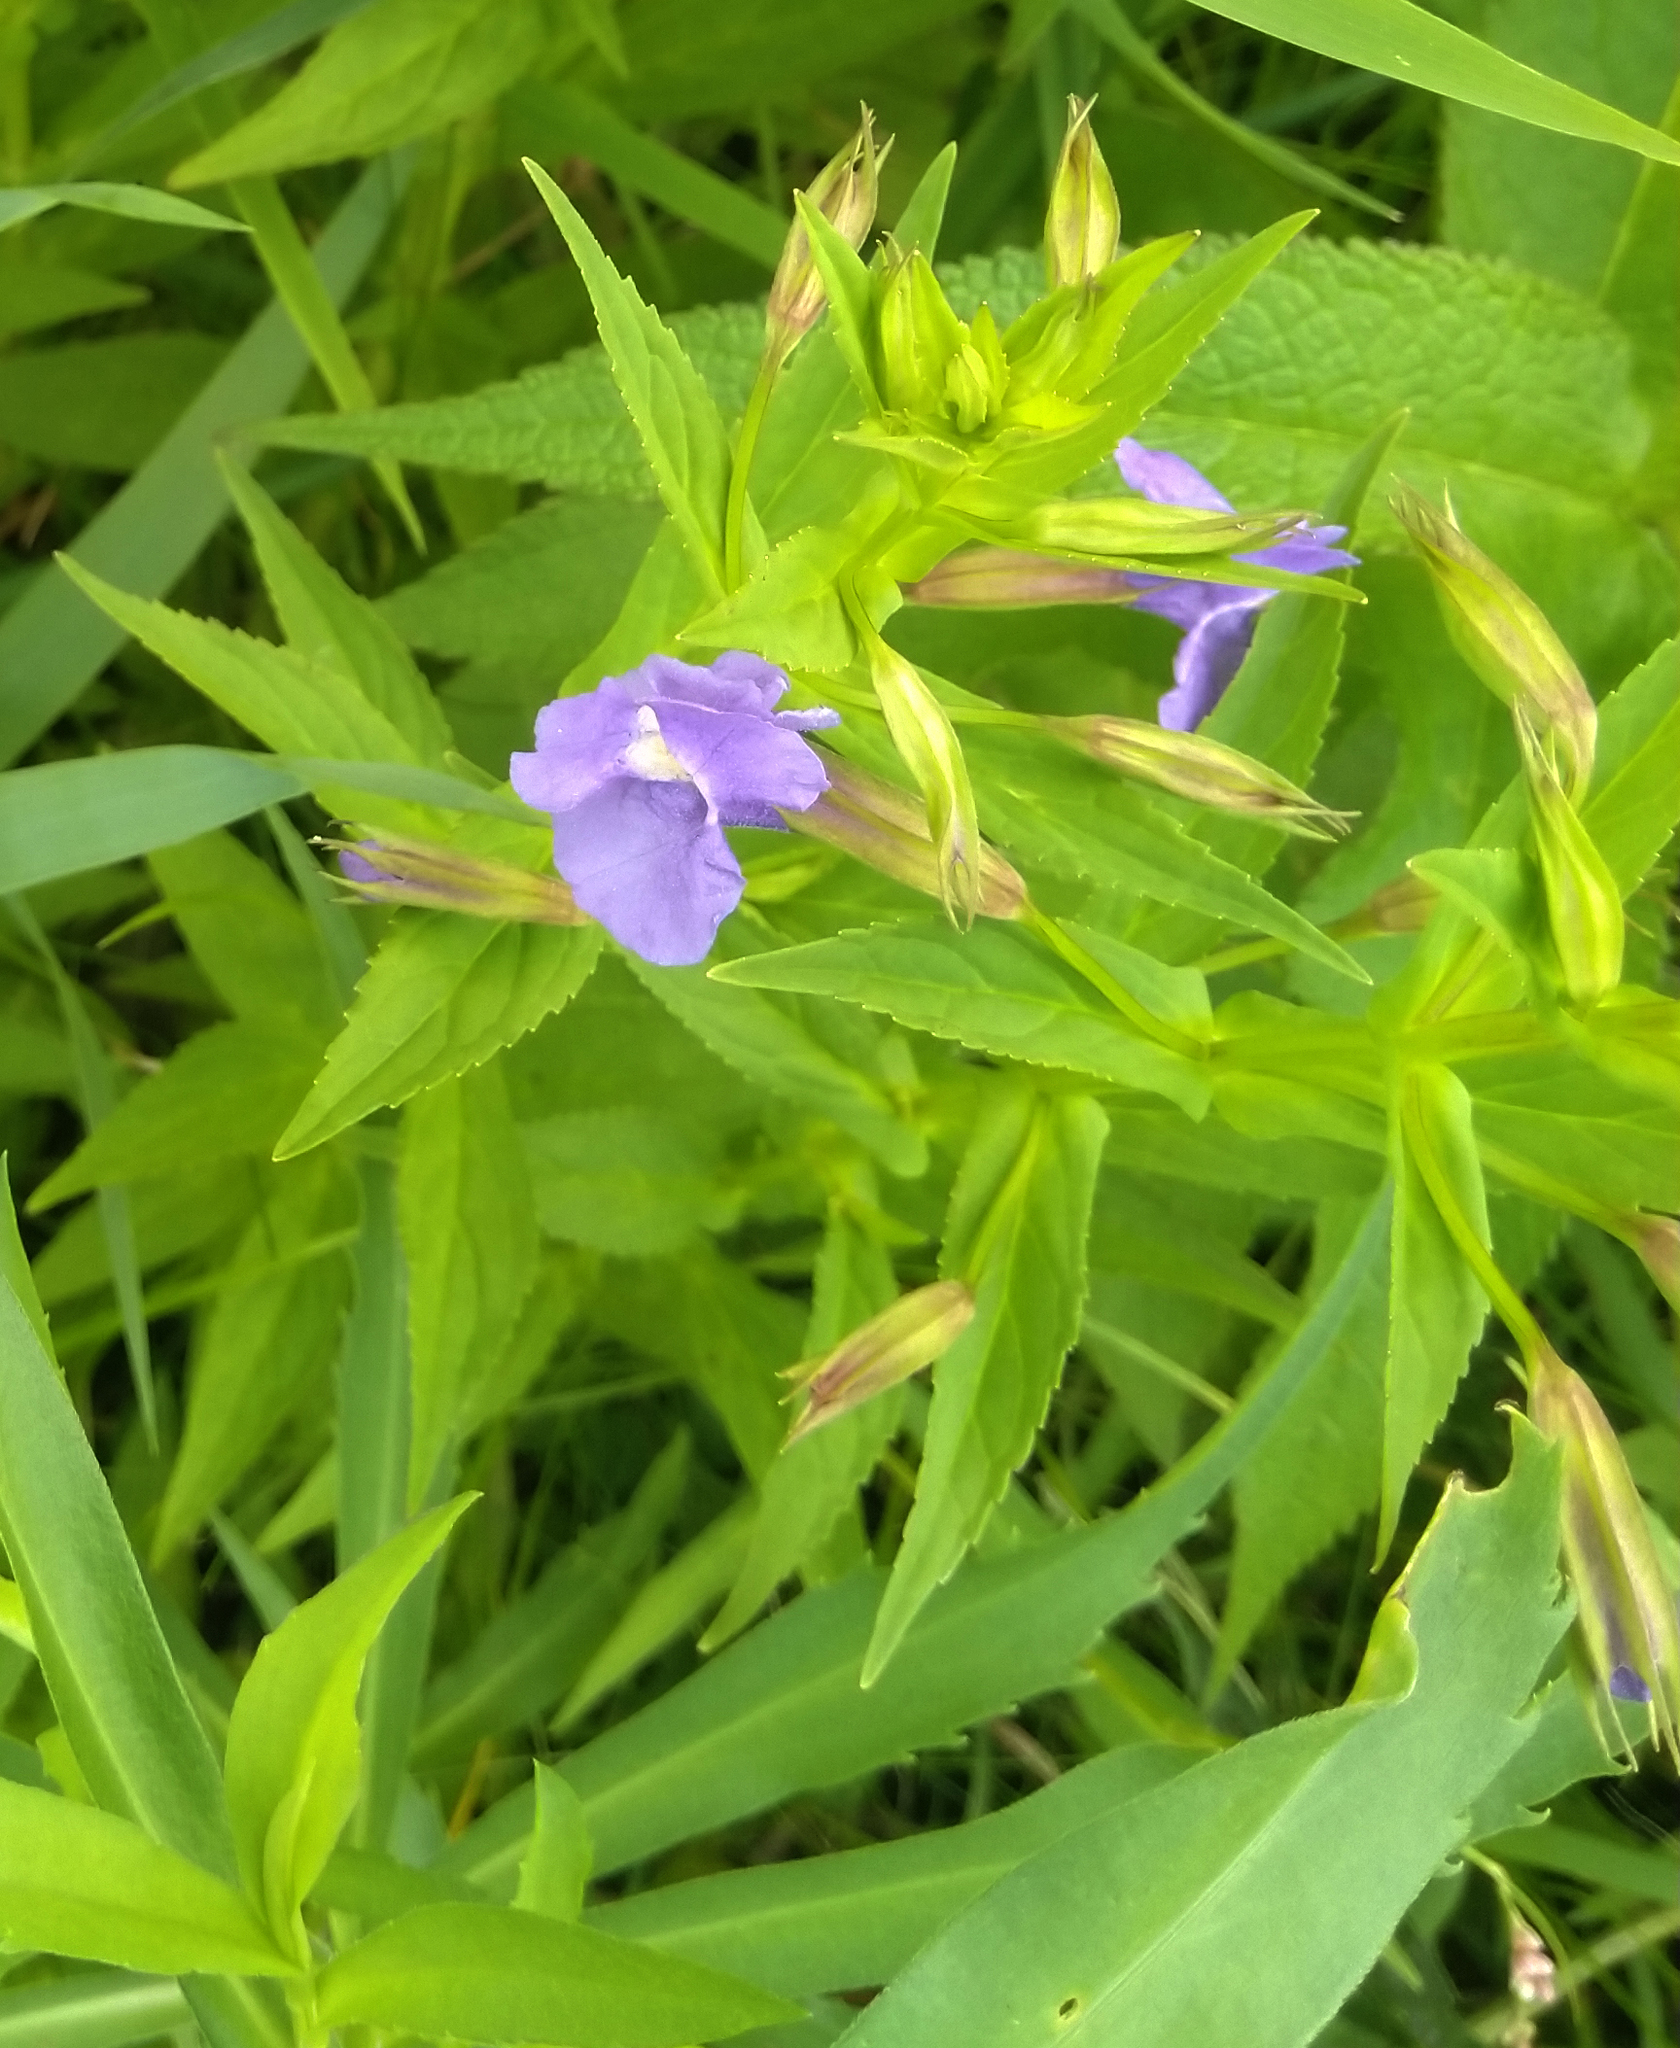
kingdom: Plantae
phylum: Tracheophyta
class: Magnoliopsida
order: Lamiales
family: Phrymaceae
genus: Mimulus
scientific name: Mimulus ringens
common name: Allegheny monkeyflower
